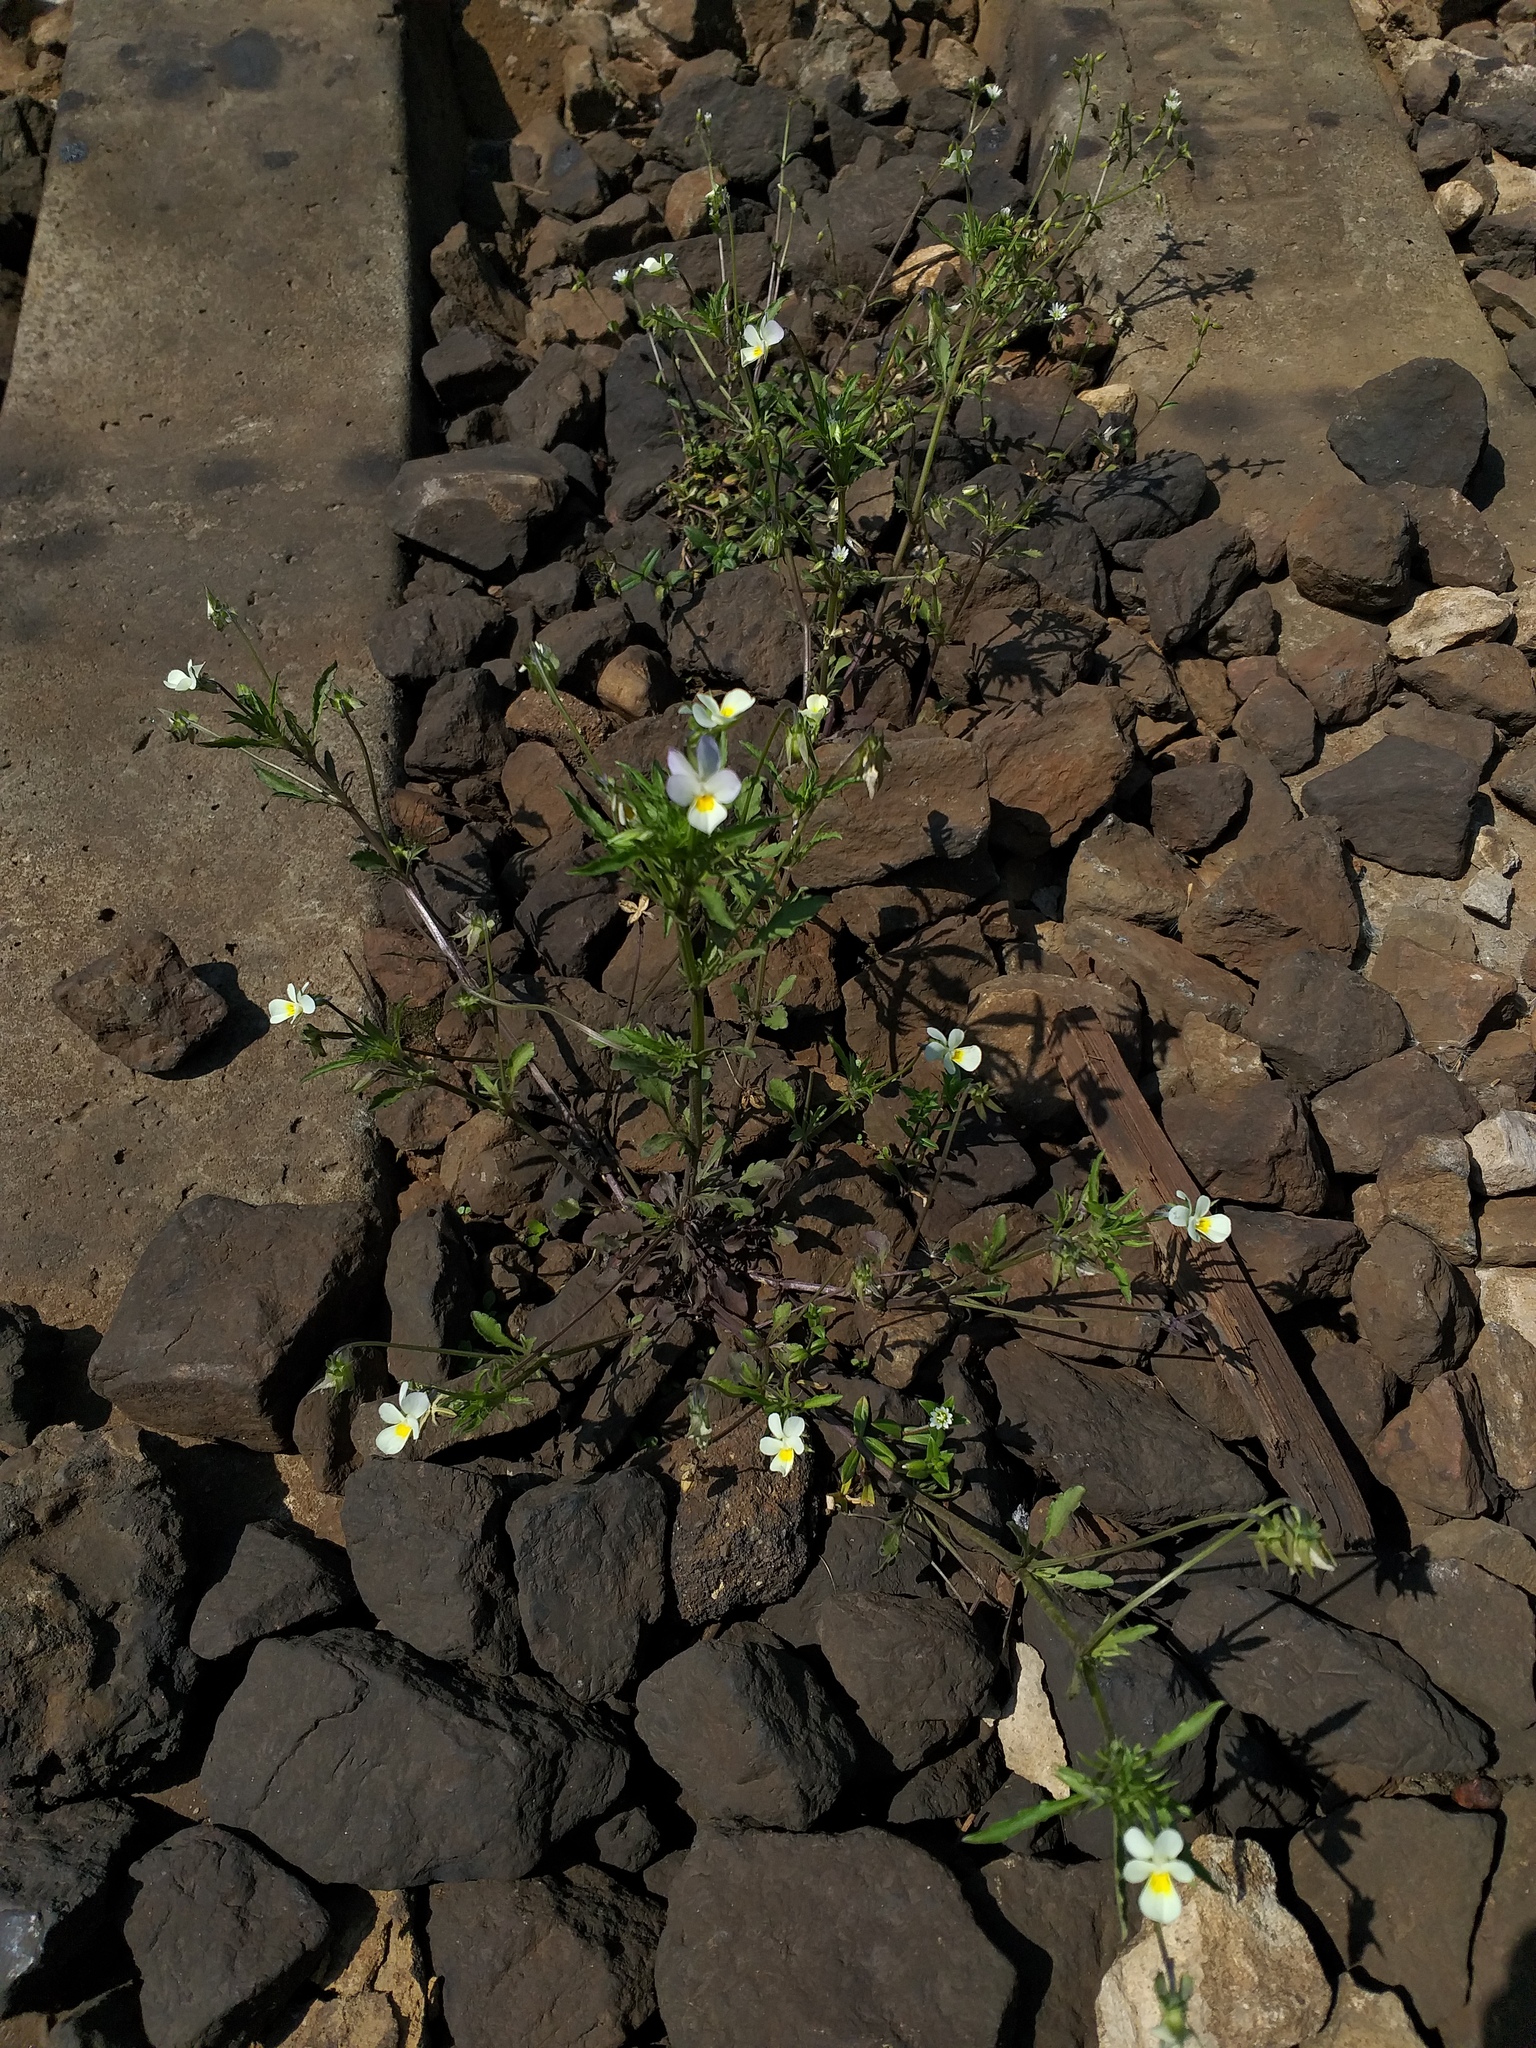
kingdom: Plantae
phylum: Tracheophyta
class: Magnoliopsida
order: Malpighiales
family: Violaceae
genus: Viola
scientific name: Viola contempta
